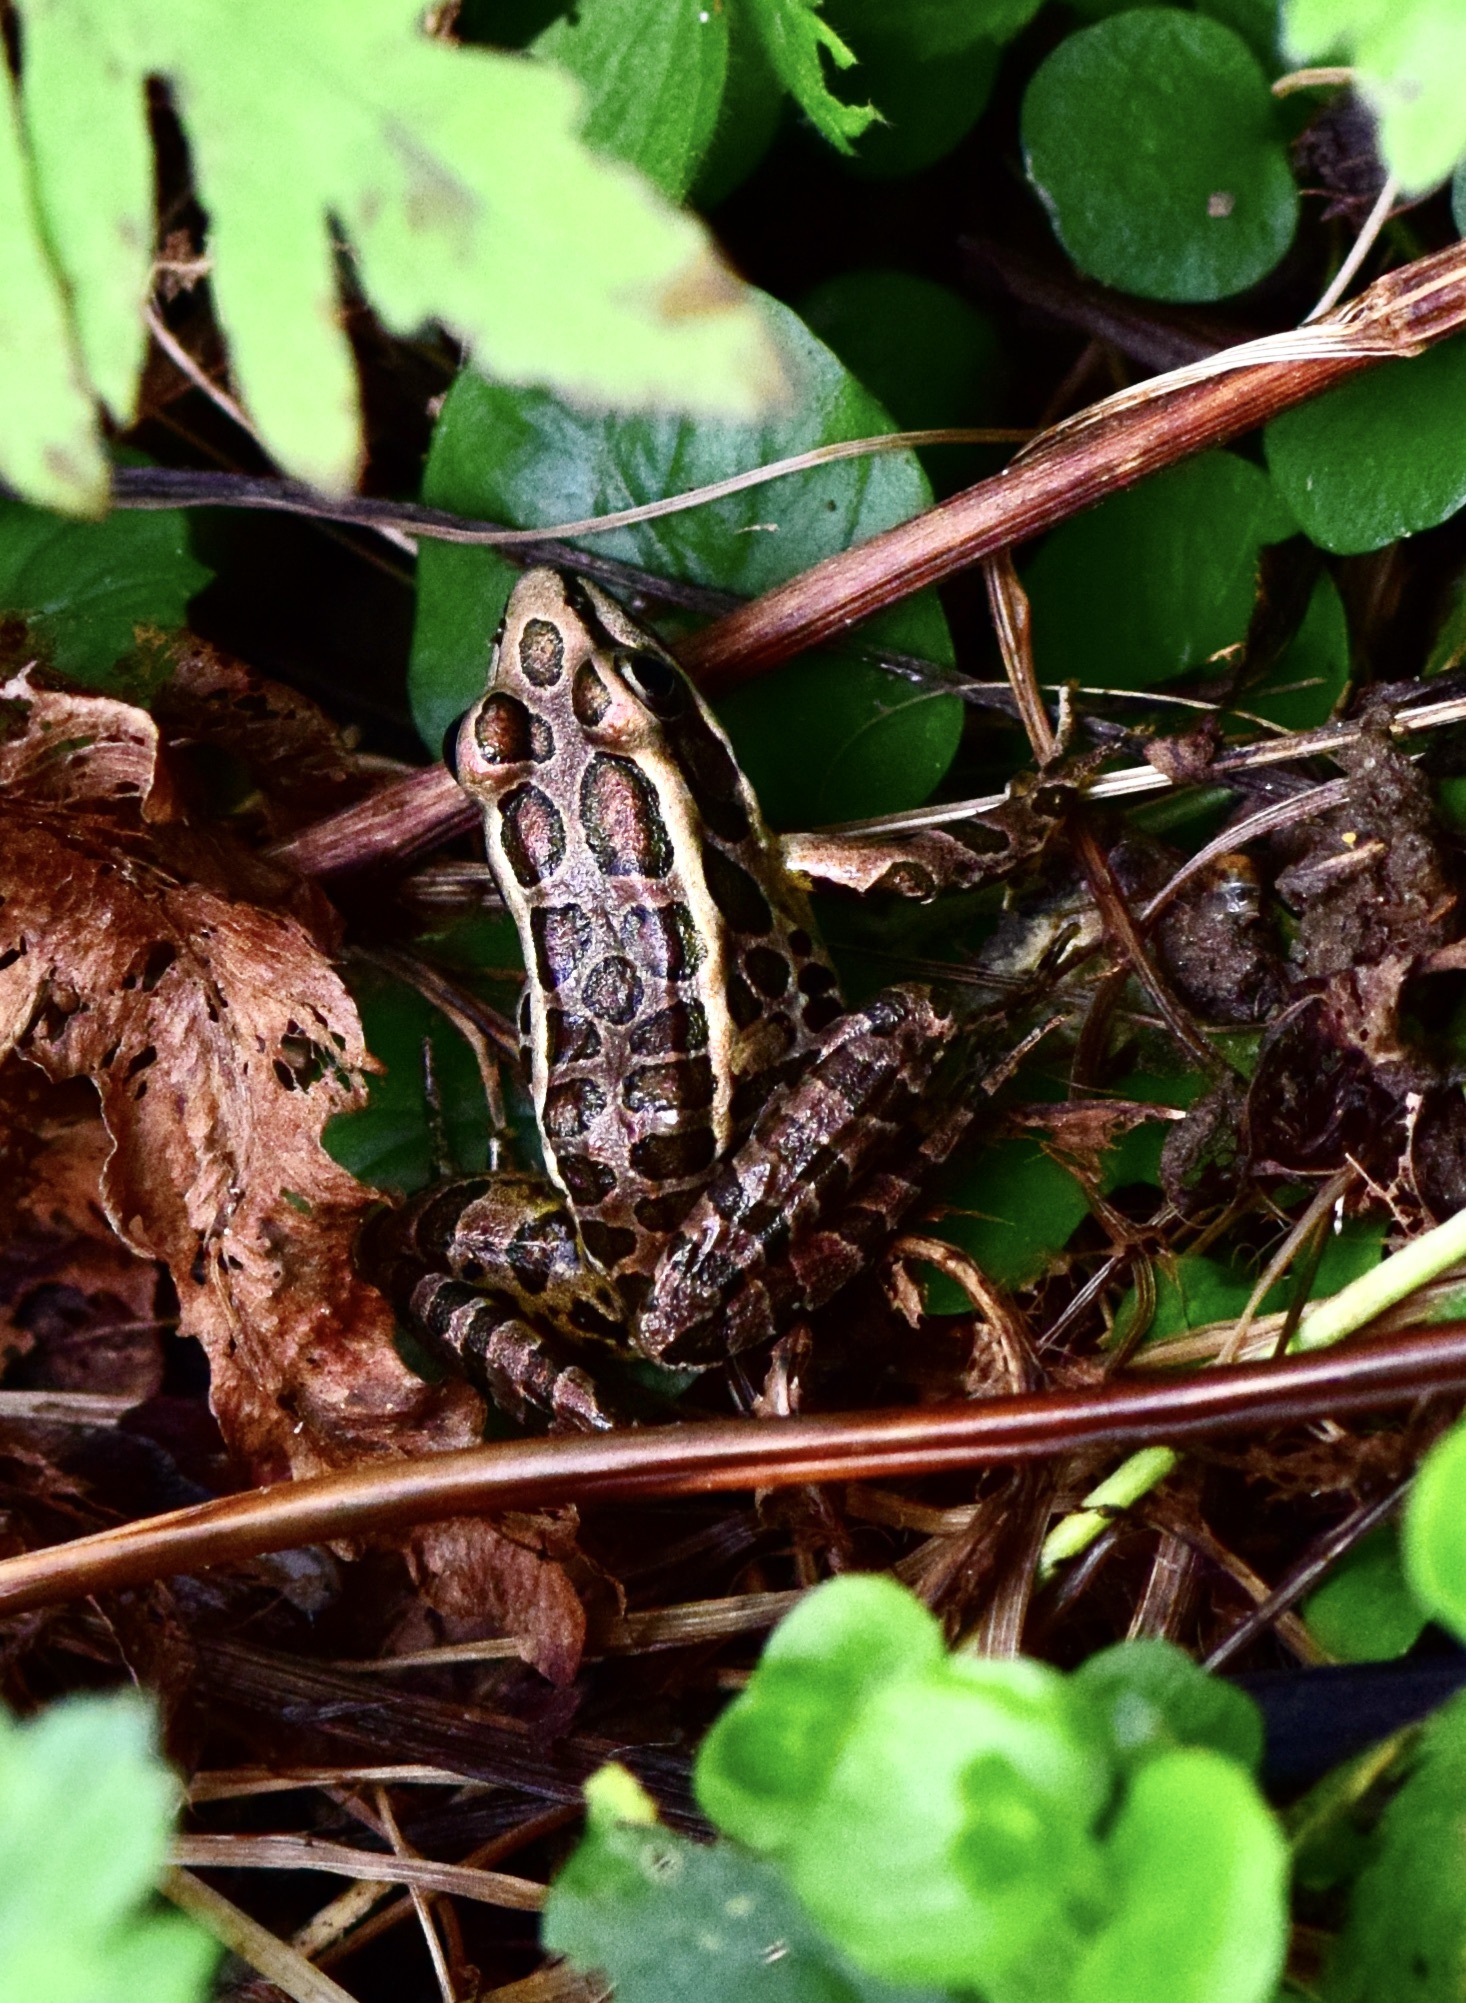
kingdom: Animalia
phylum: Chordata
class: Amphibia
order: Anura
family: Ranidae
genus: Lithobates
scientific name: Lithobates palustris
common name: Pickerel frog
